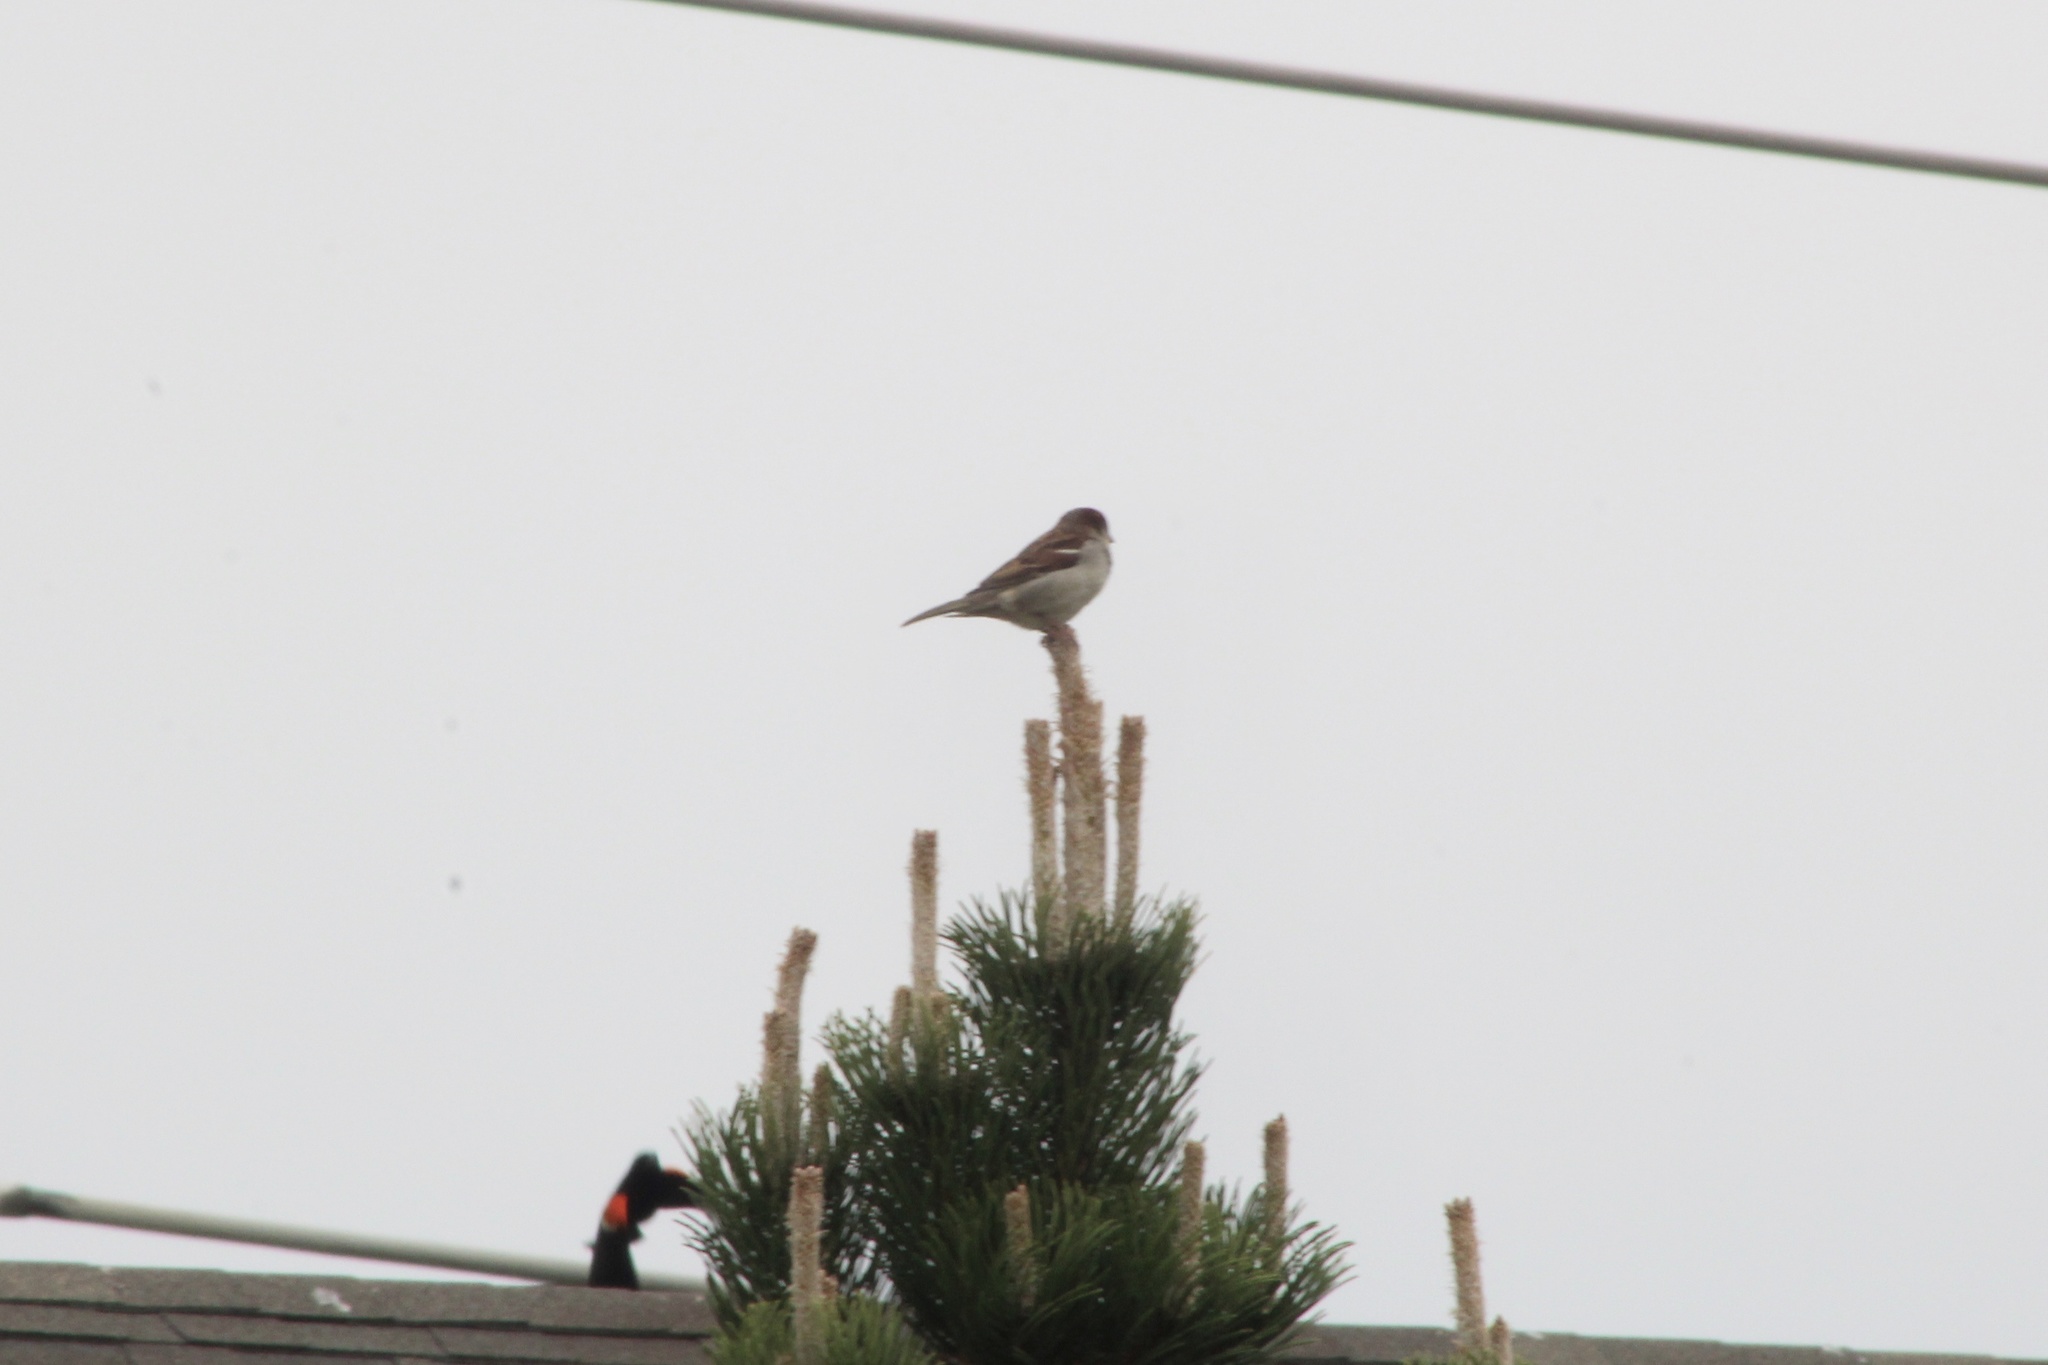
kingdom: Animalia
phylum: Chordata
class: Aves
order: Passeriformes
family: Passeridae
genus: Passer
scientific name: Passer domesticus
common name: House sparrow
